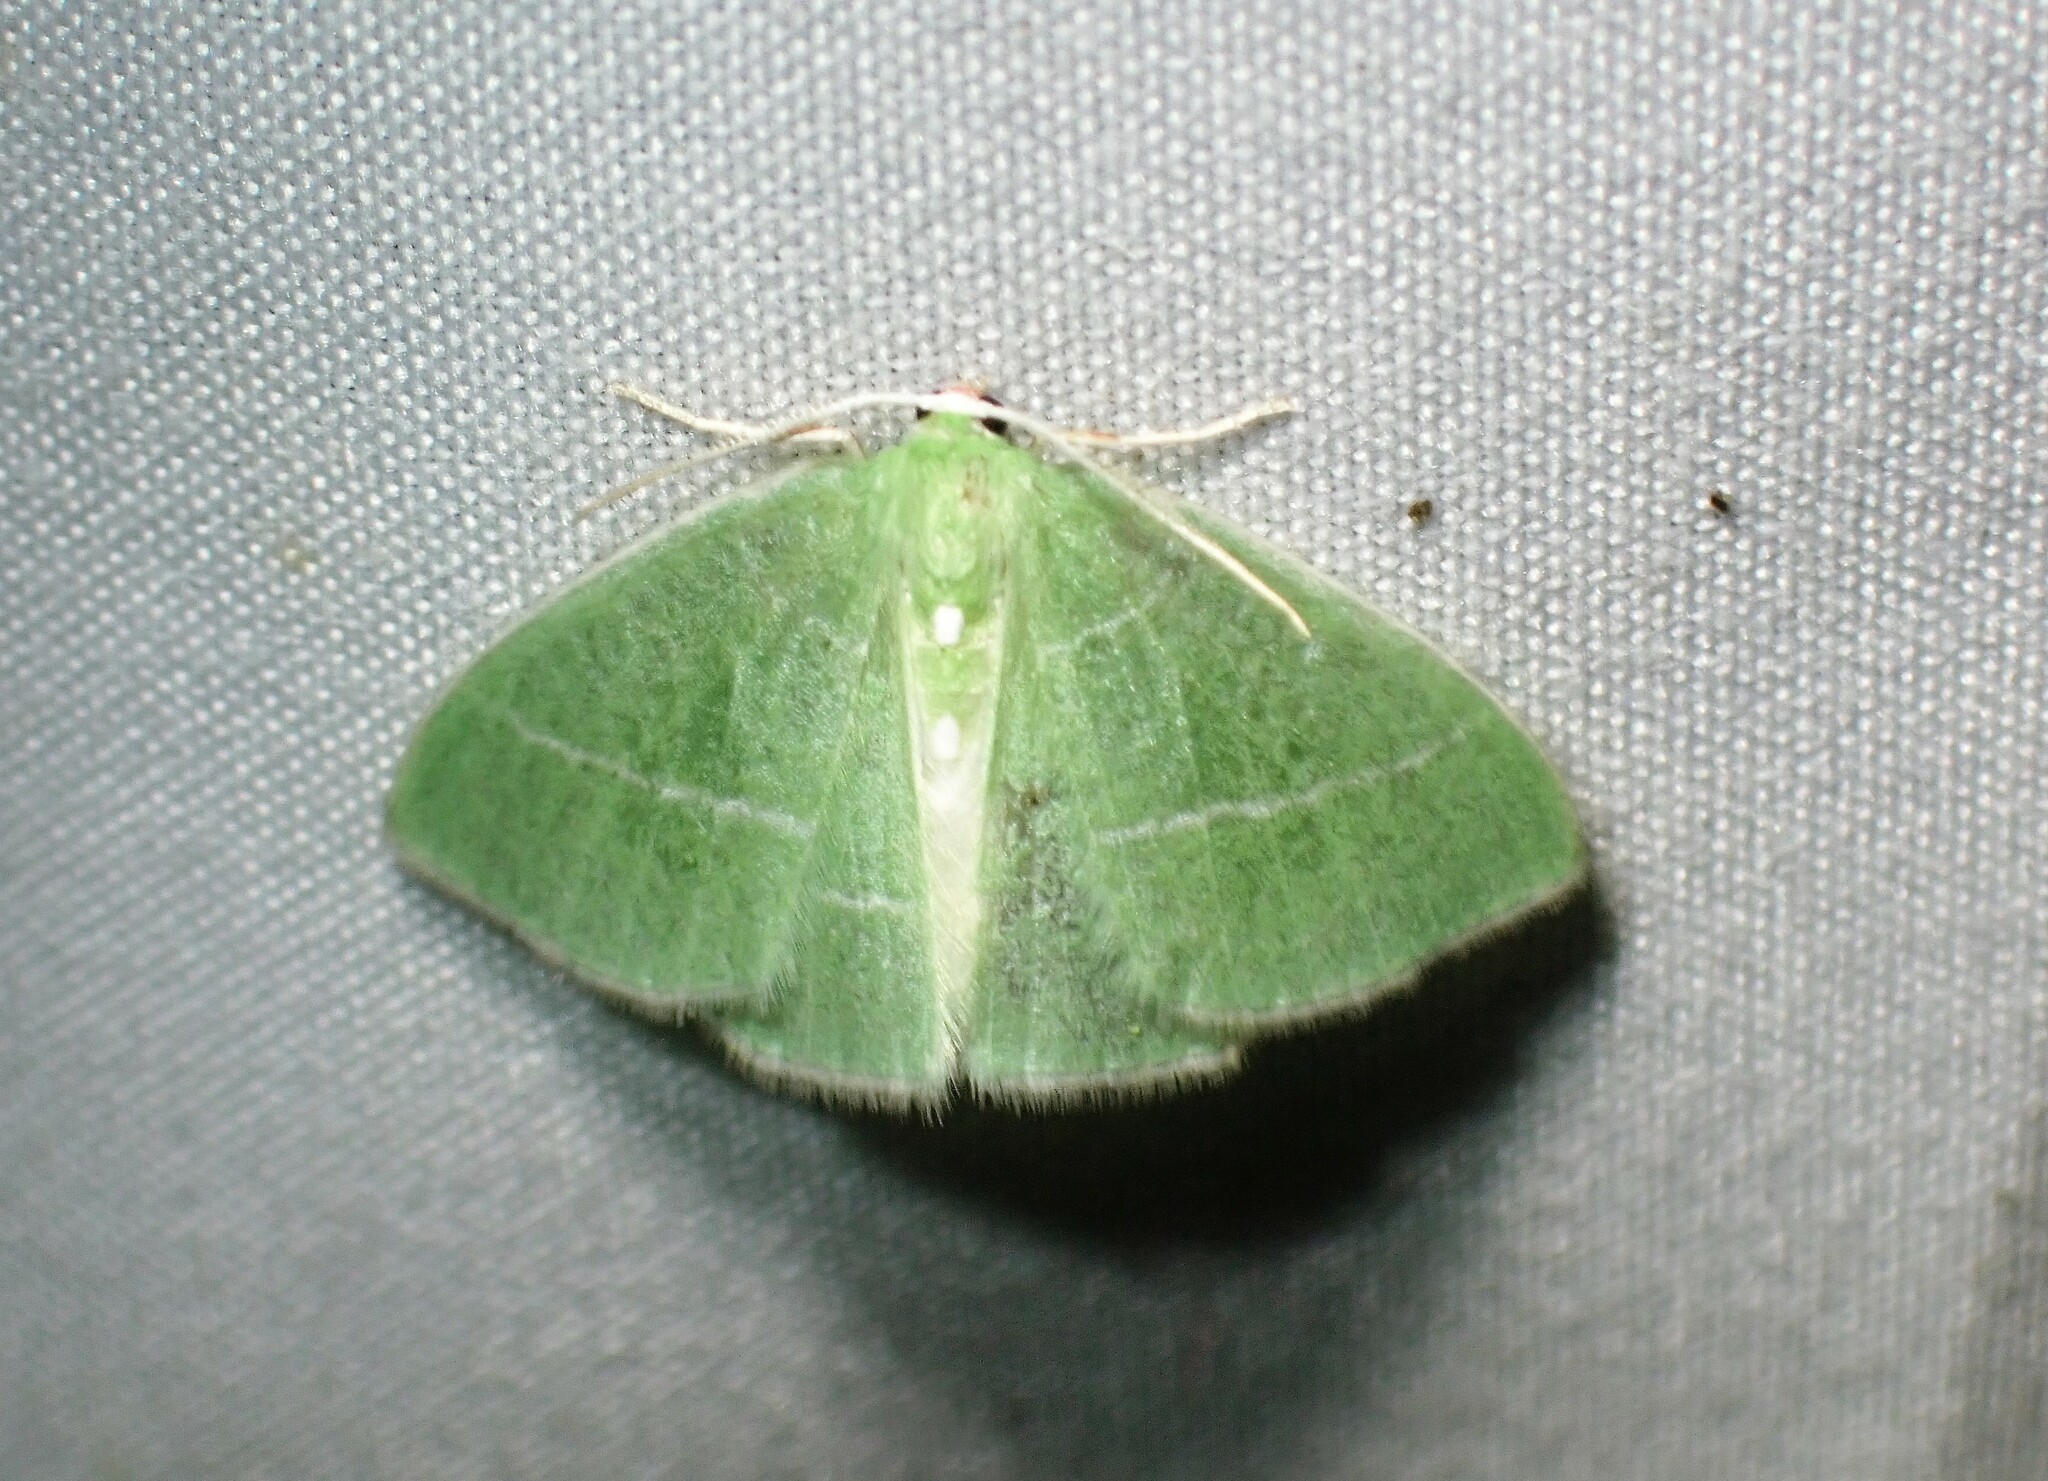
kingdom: Animalia
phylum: Arthropoda
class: Insecta
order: Lepidoptera
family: Geometridae
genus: Nemoria
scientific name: Nemoria mimosaria
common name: White-fringed emerald
